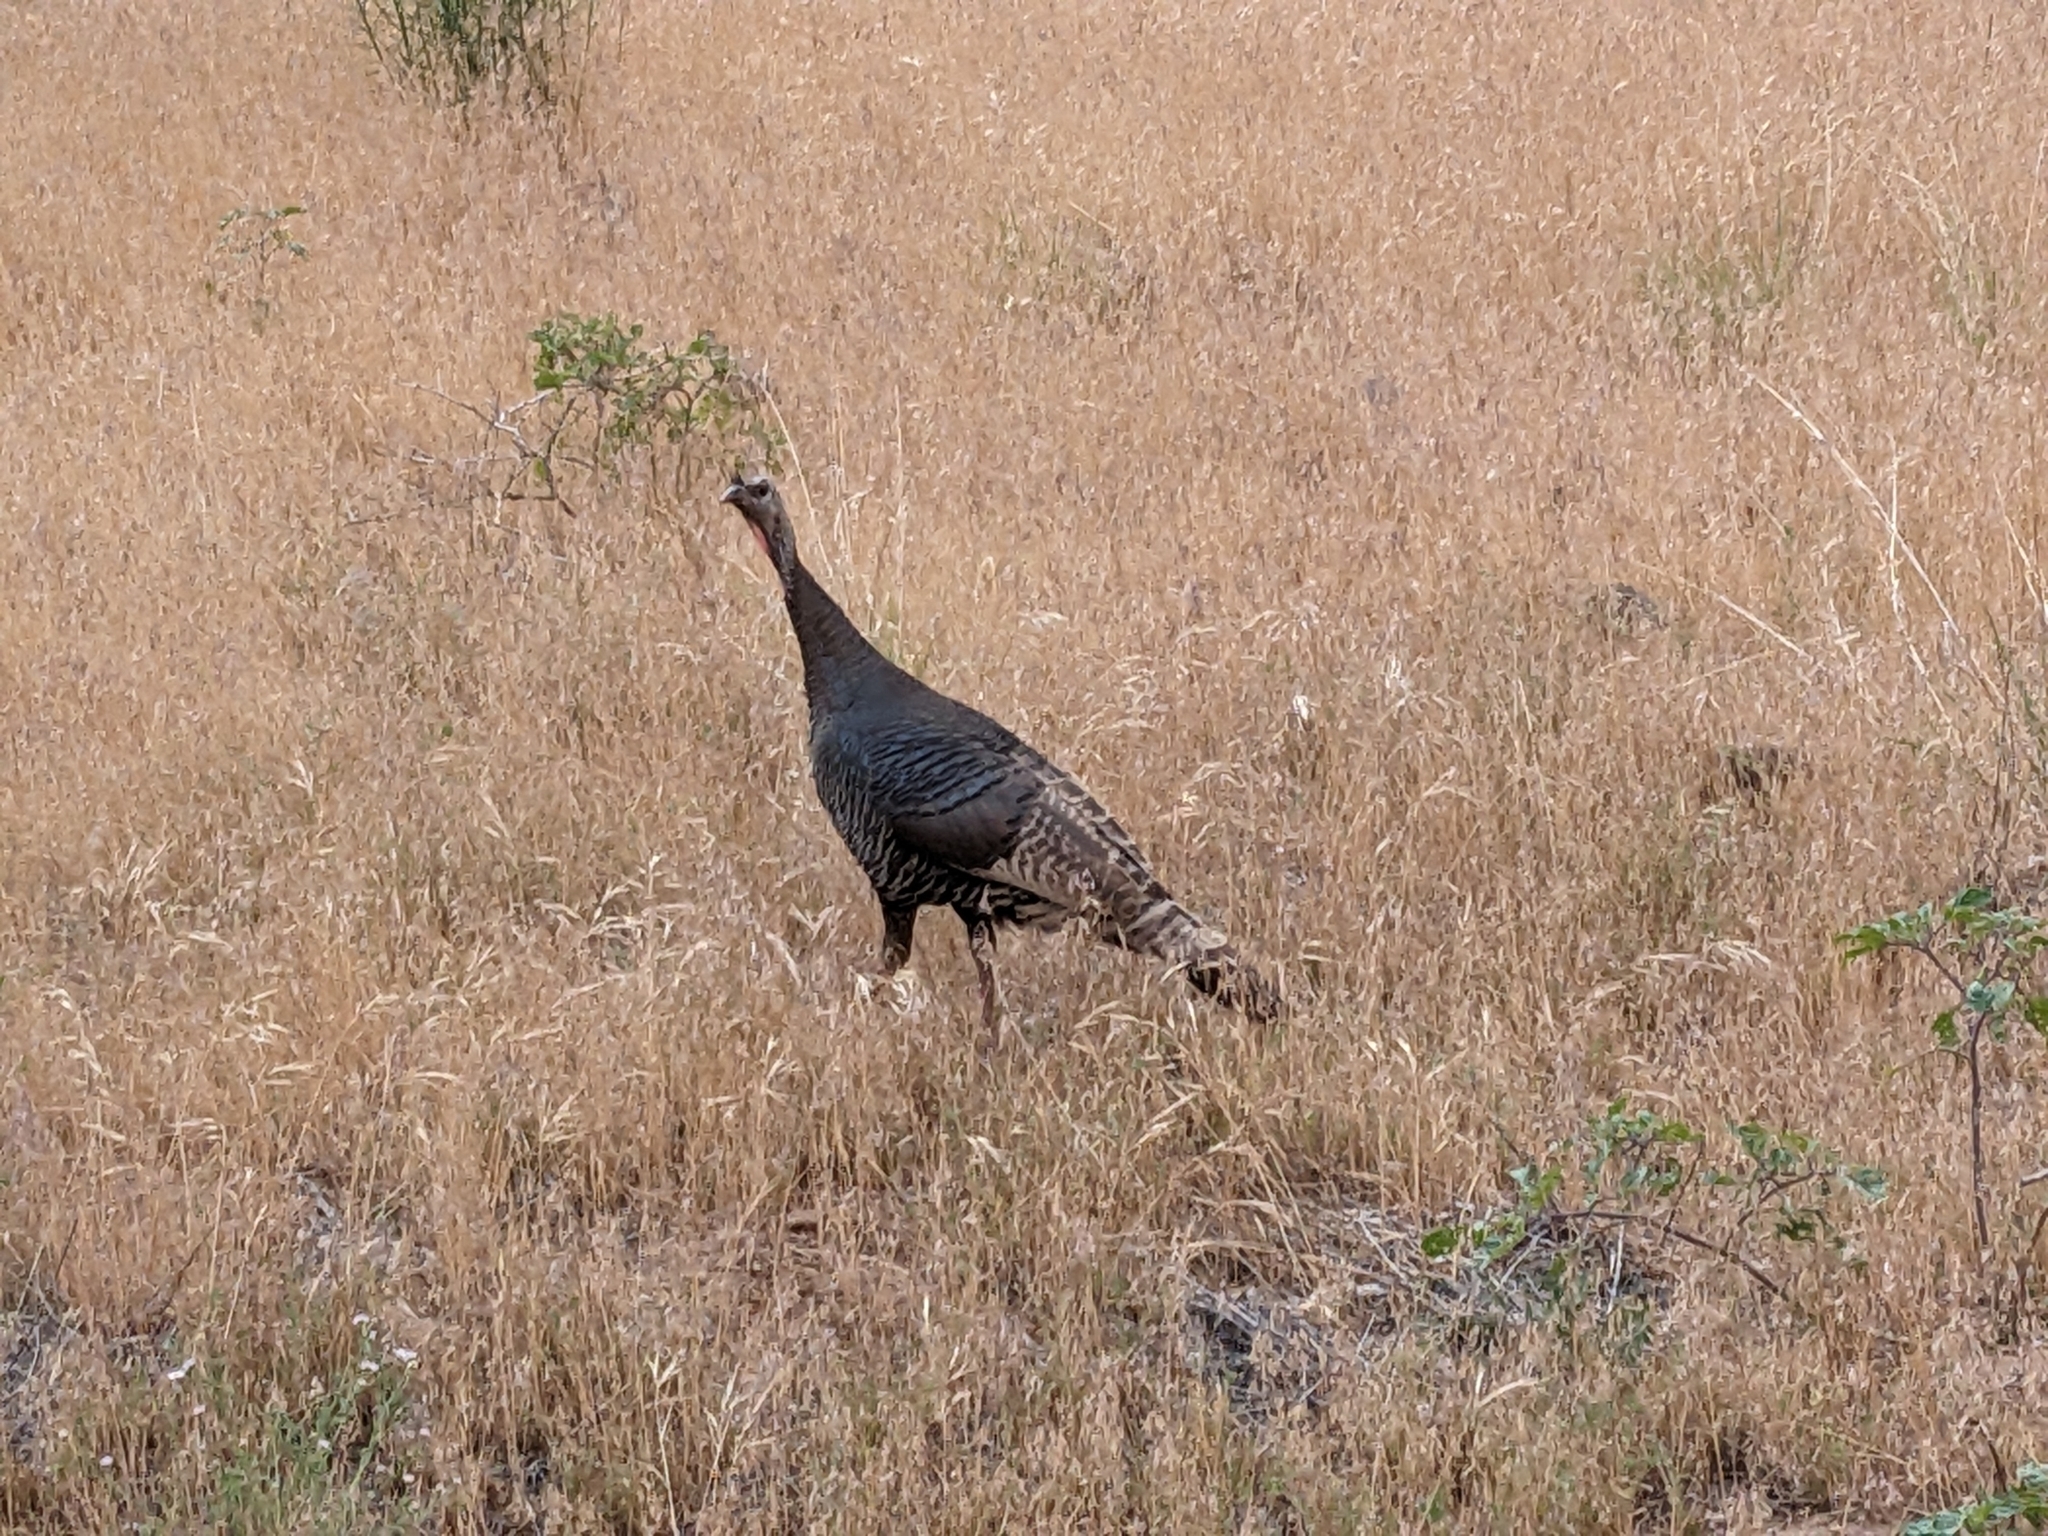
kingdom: Animalia
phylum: Chordata
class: Aves
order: Galliformes
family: Phasianidae
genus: Meleagris
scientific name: Meleagris gallopavo
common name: Wild turkey
